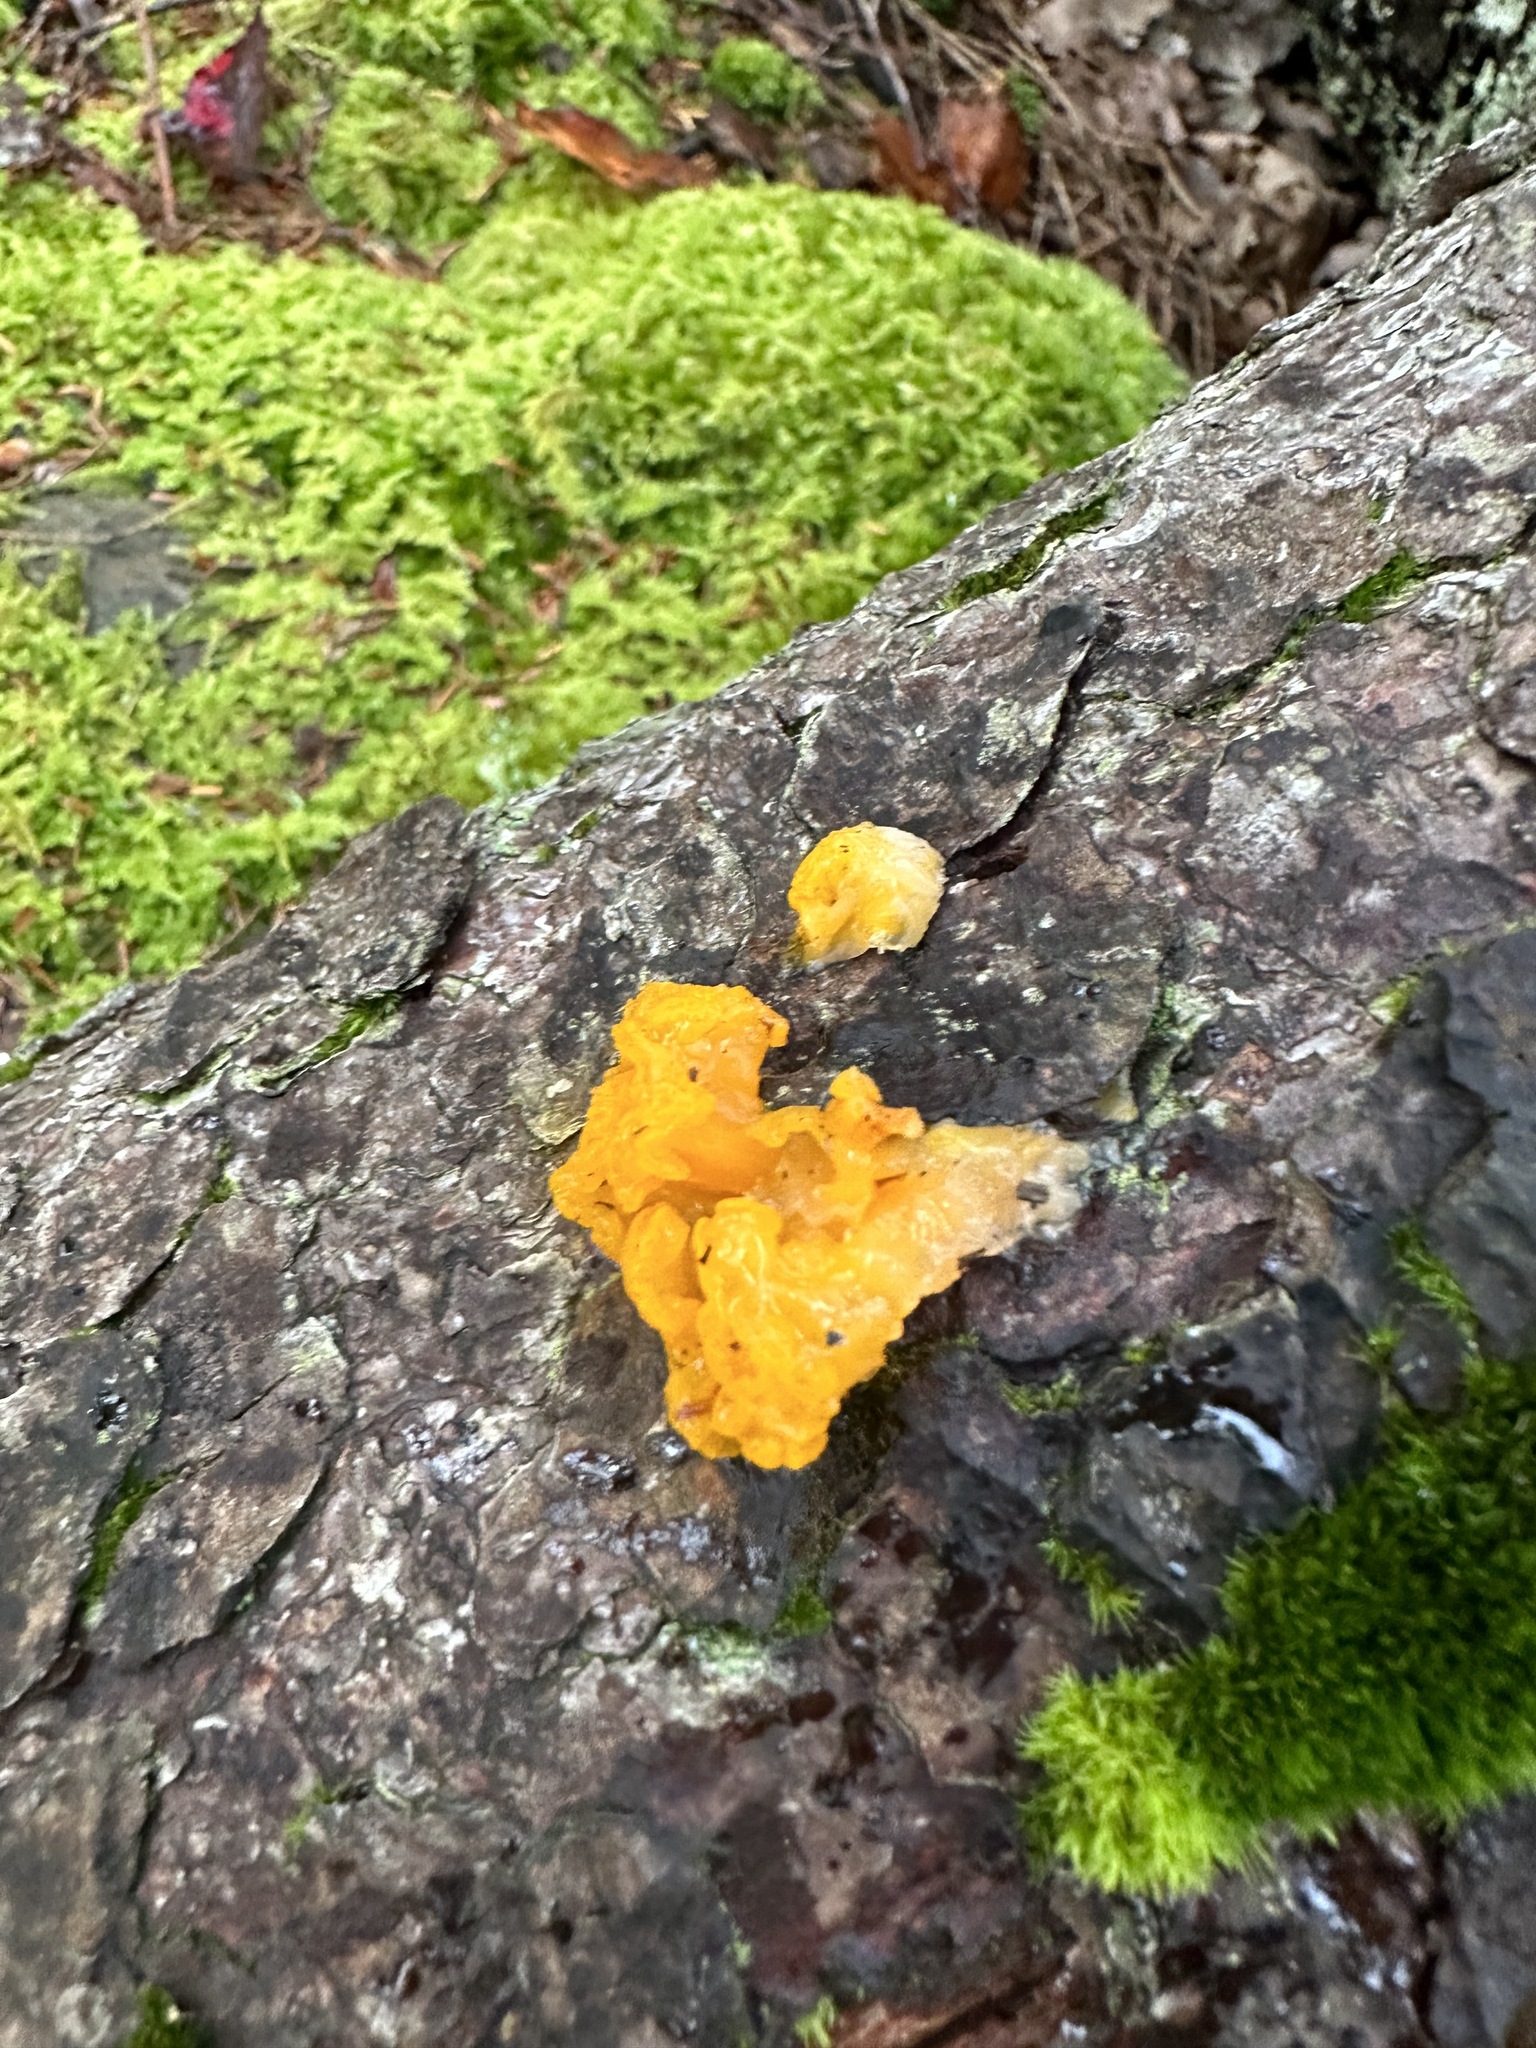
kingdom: Fungi
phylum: Basidiomycota
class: Dacrymycetes
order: Dacrymycetales
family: Dacrymycetaceae
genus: Dacrymyces
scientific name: Dacrymyces chrysospermus
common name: Orange jelly spot
